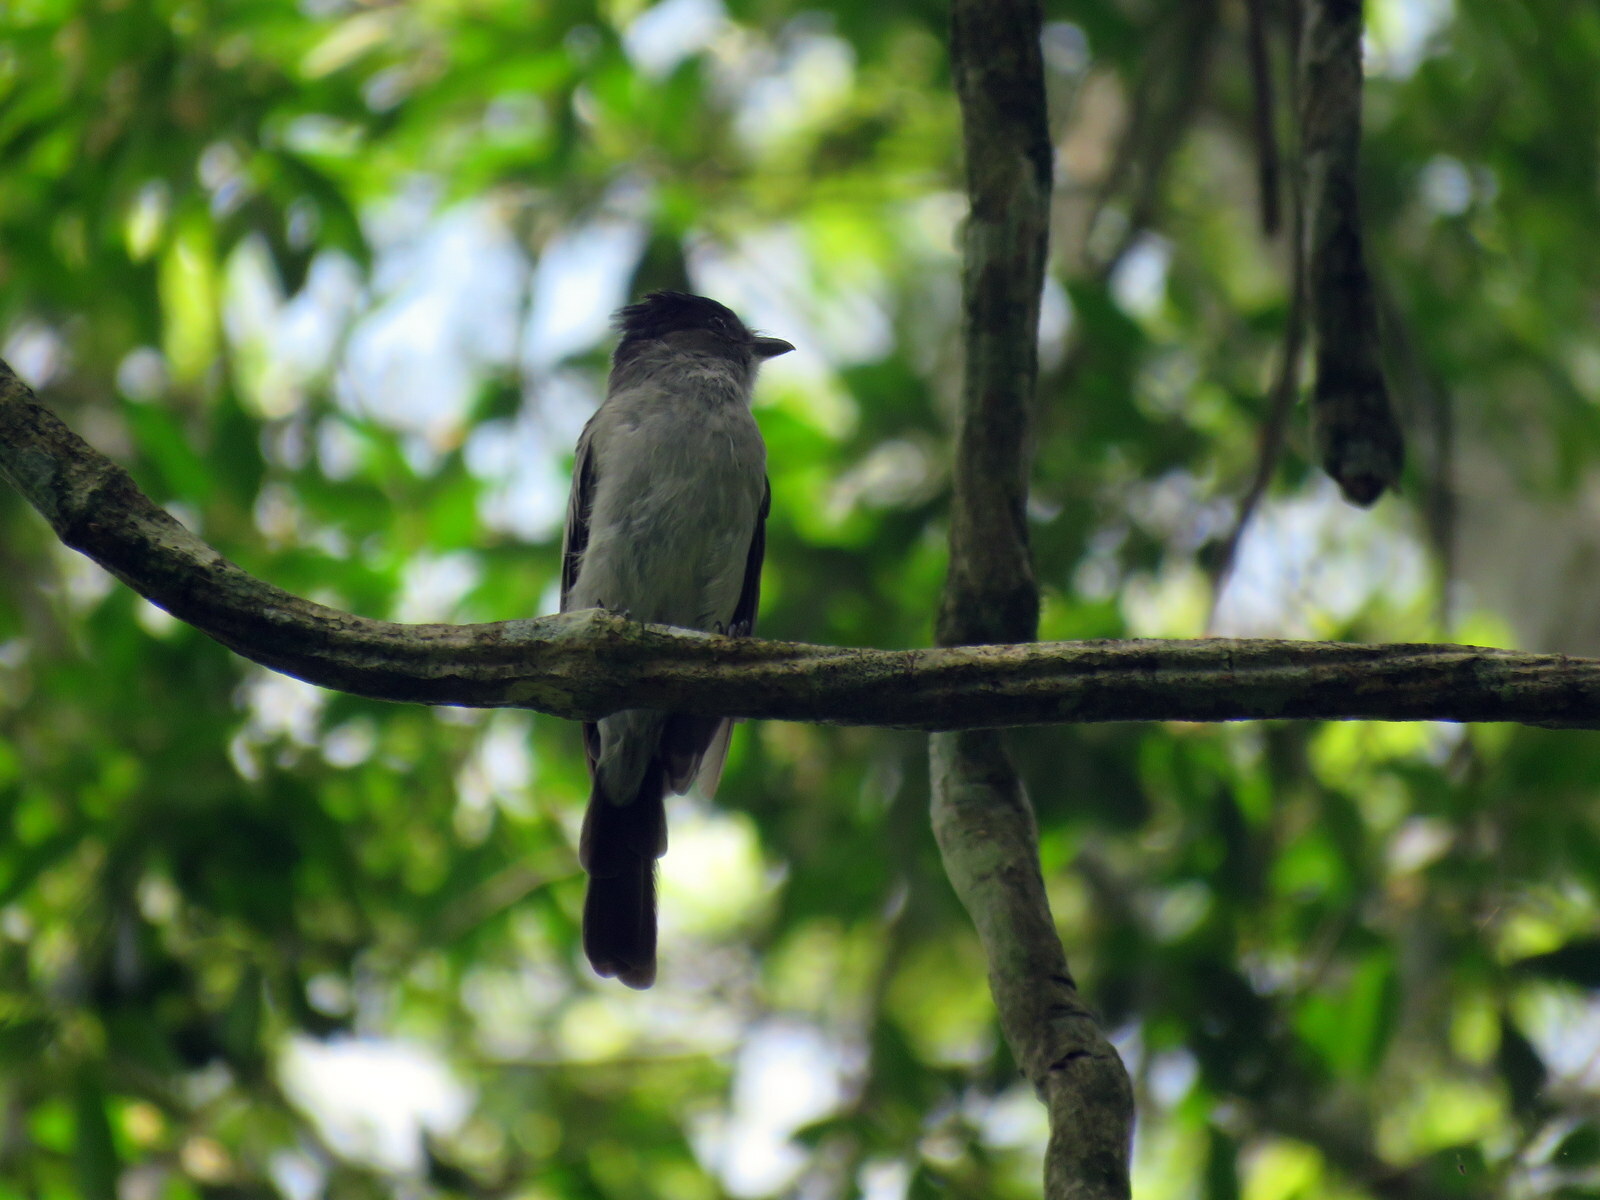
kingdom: Animalia
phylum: Chordata
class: Aves
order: Passeriformes
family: Tyrannidae
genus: Sirystes
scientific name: Sirystes sibilator
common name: Sirystes
